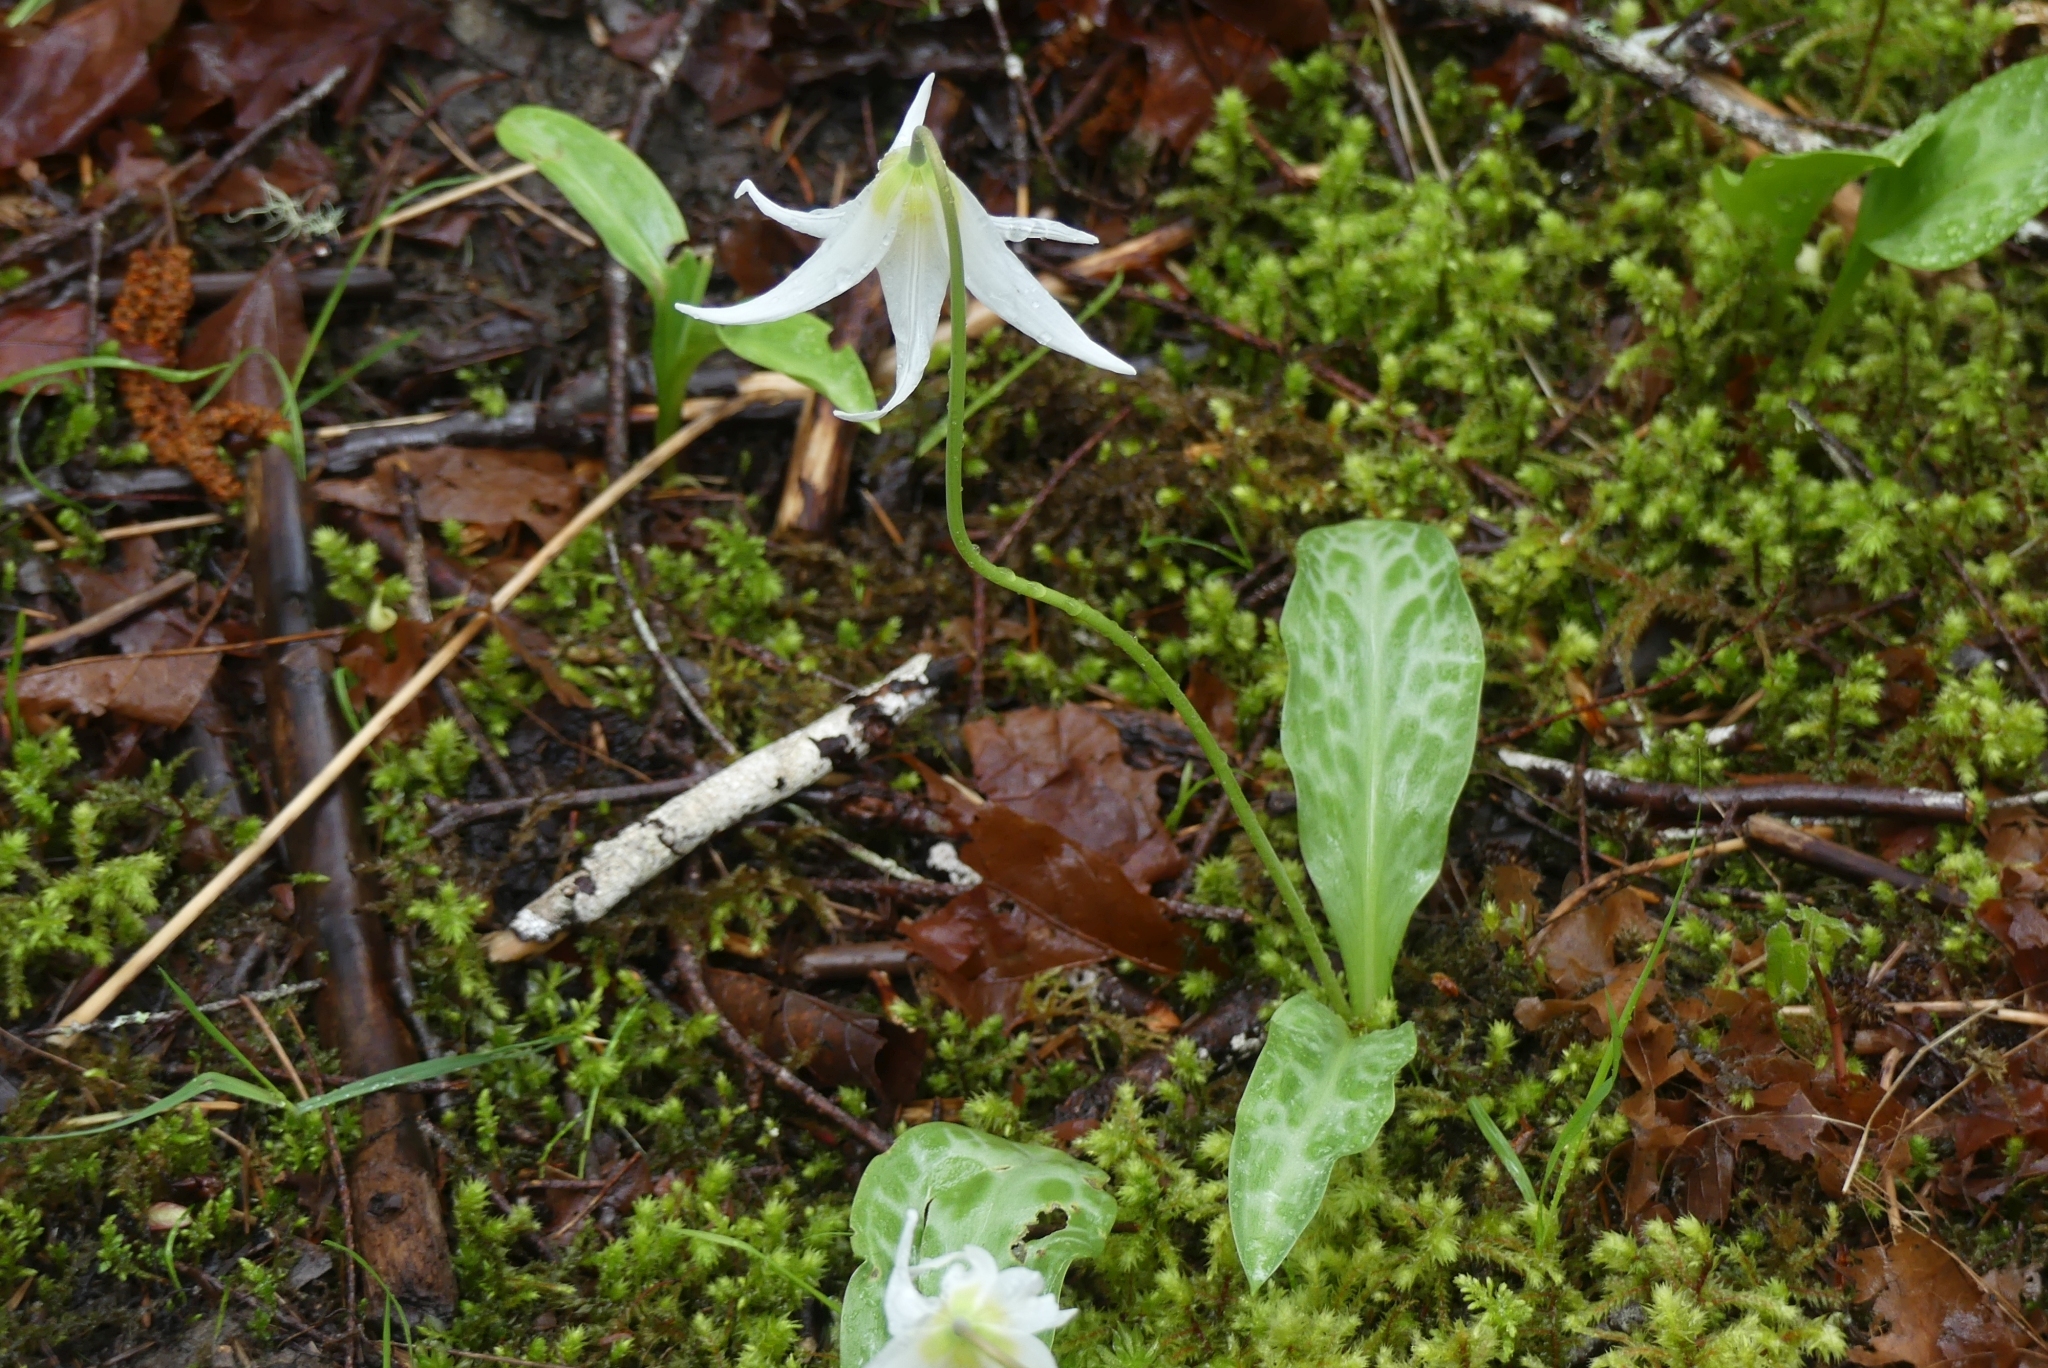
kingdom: Plantae
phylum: Tracheophyta
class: Liliopsida
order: Liliales
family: Liliaceae
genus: Erythronium
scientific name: Erythronium oregonum
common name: Giant adder's-tongue
